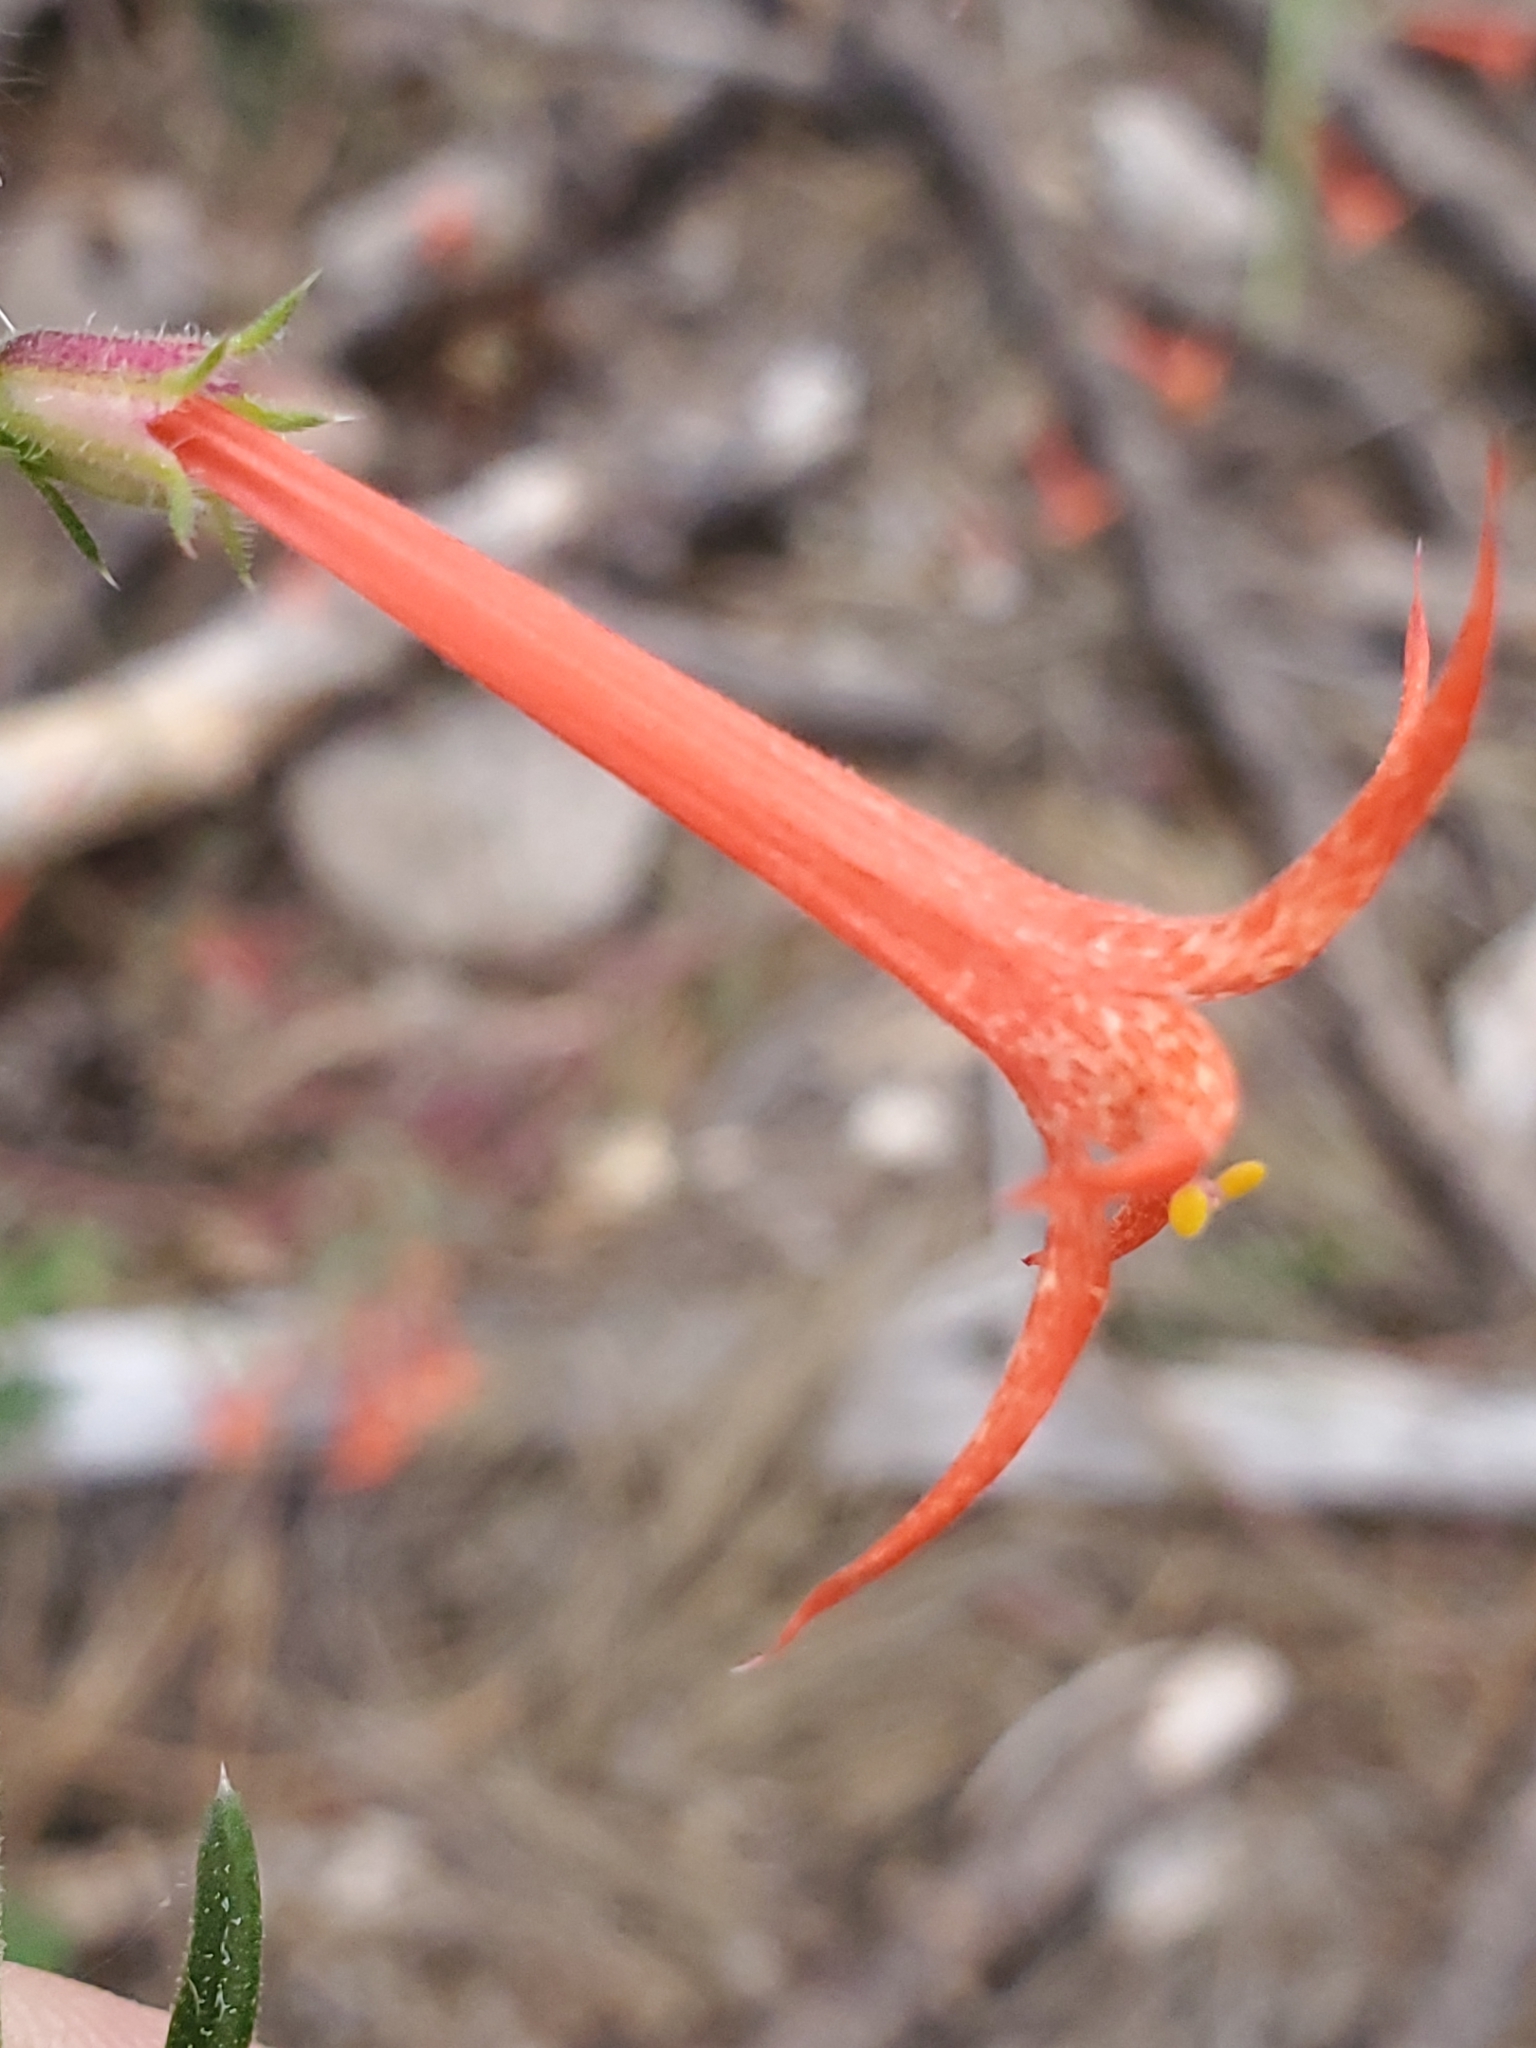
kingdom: Plantae
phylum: Tracheophyta
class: Magnoliopsida
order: Ericales
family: Polemoniaceae
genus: Ipomopsis
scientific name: Ipomopsis aggregata
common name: Scarlet gilia
